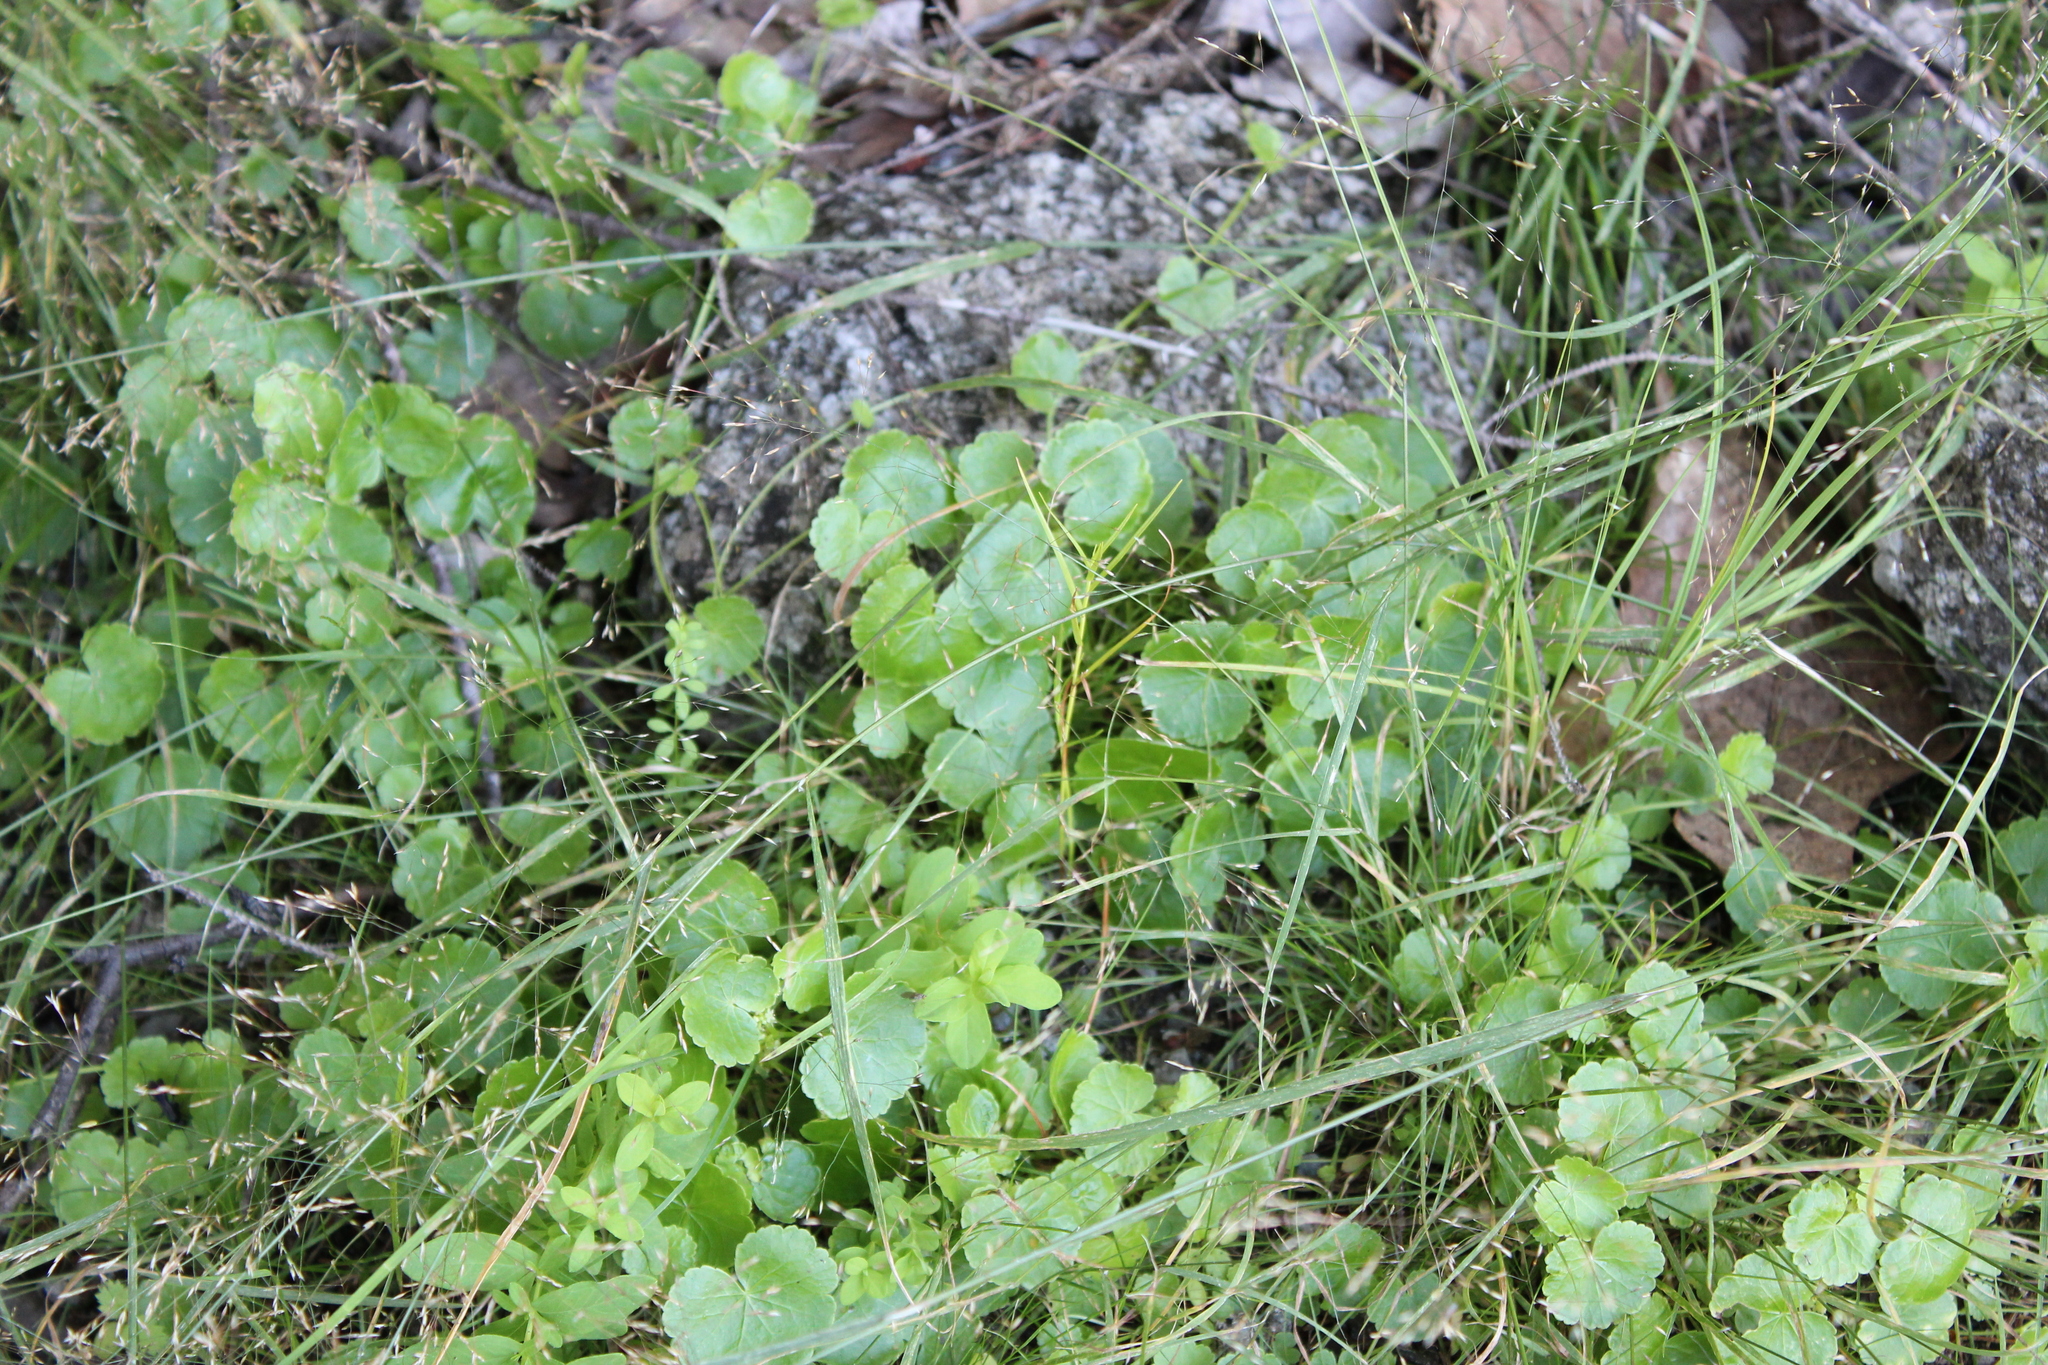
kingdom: Plantae
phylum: Tracheophyta
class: Magnoliopsida
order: Apiales
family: Araliaceae
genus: Hydrocotyle
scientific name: Hydrocotyle americana
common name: American water-pennywort
